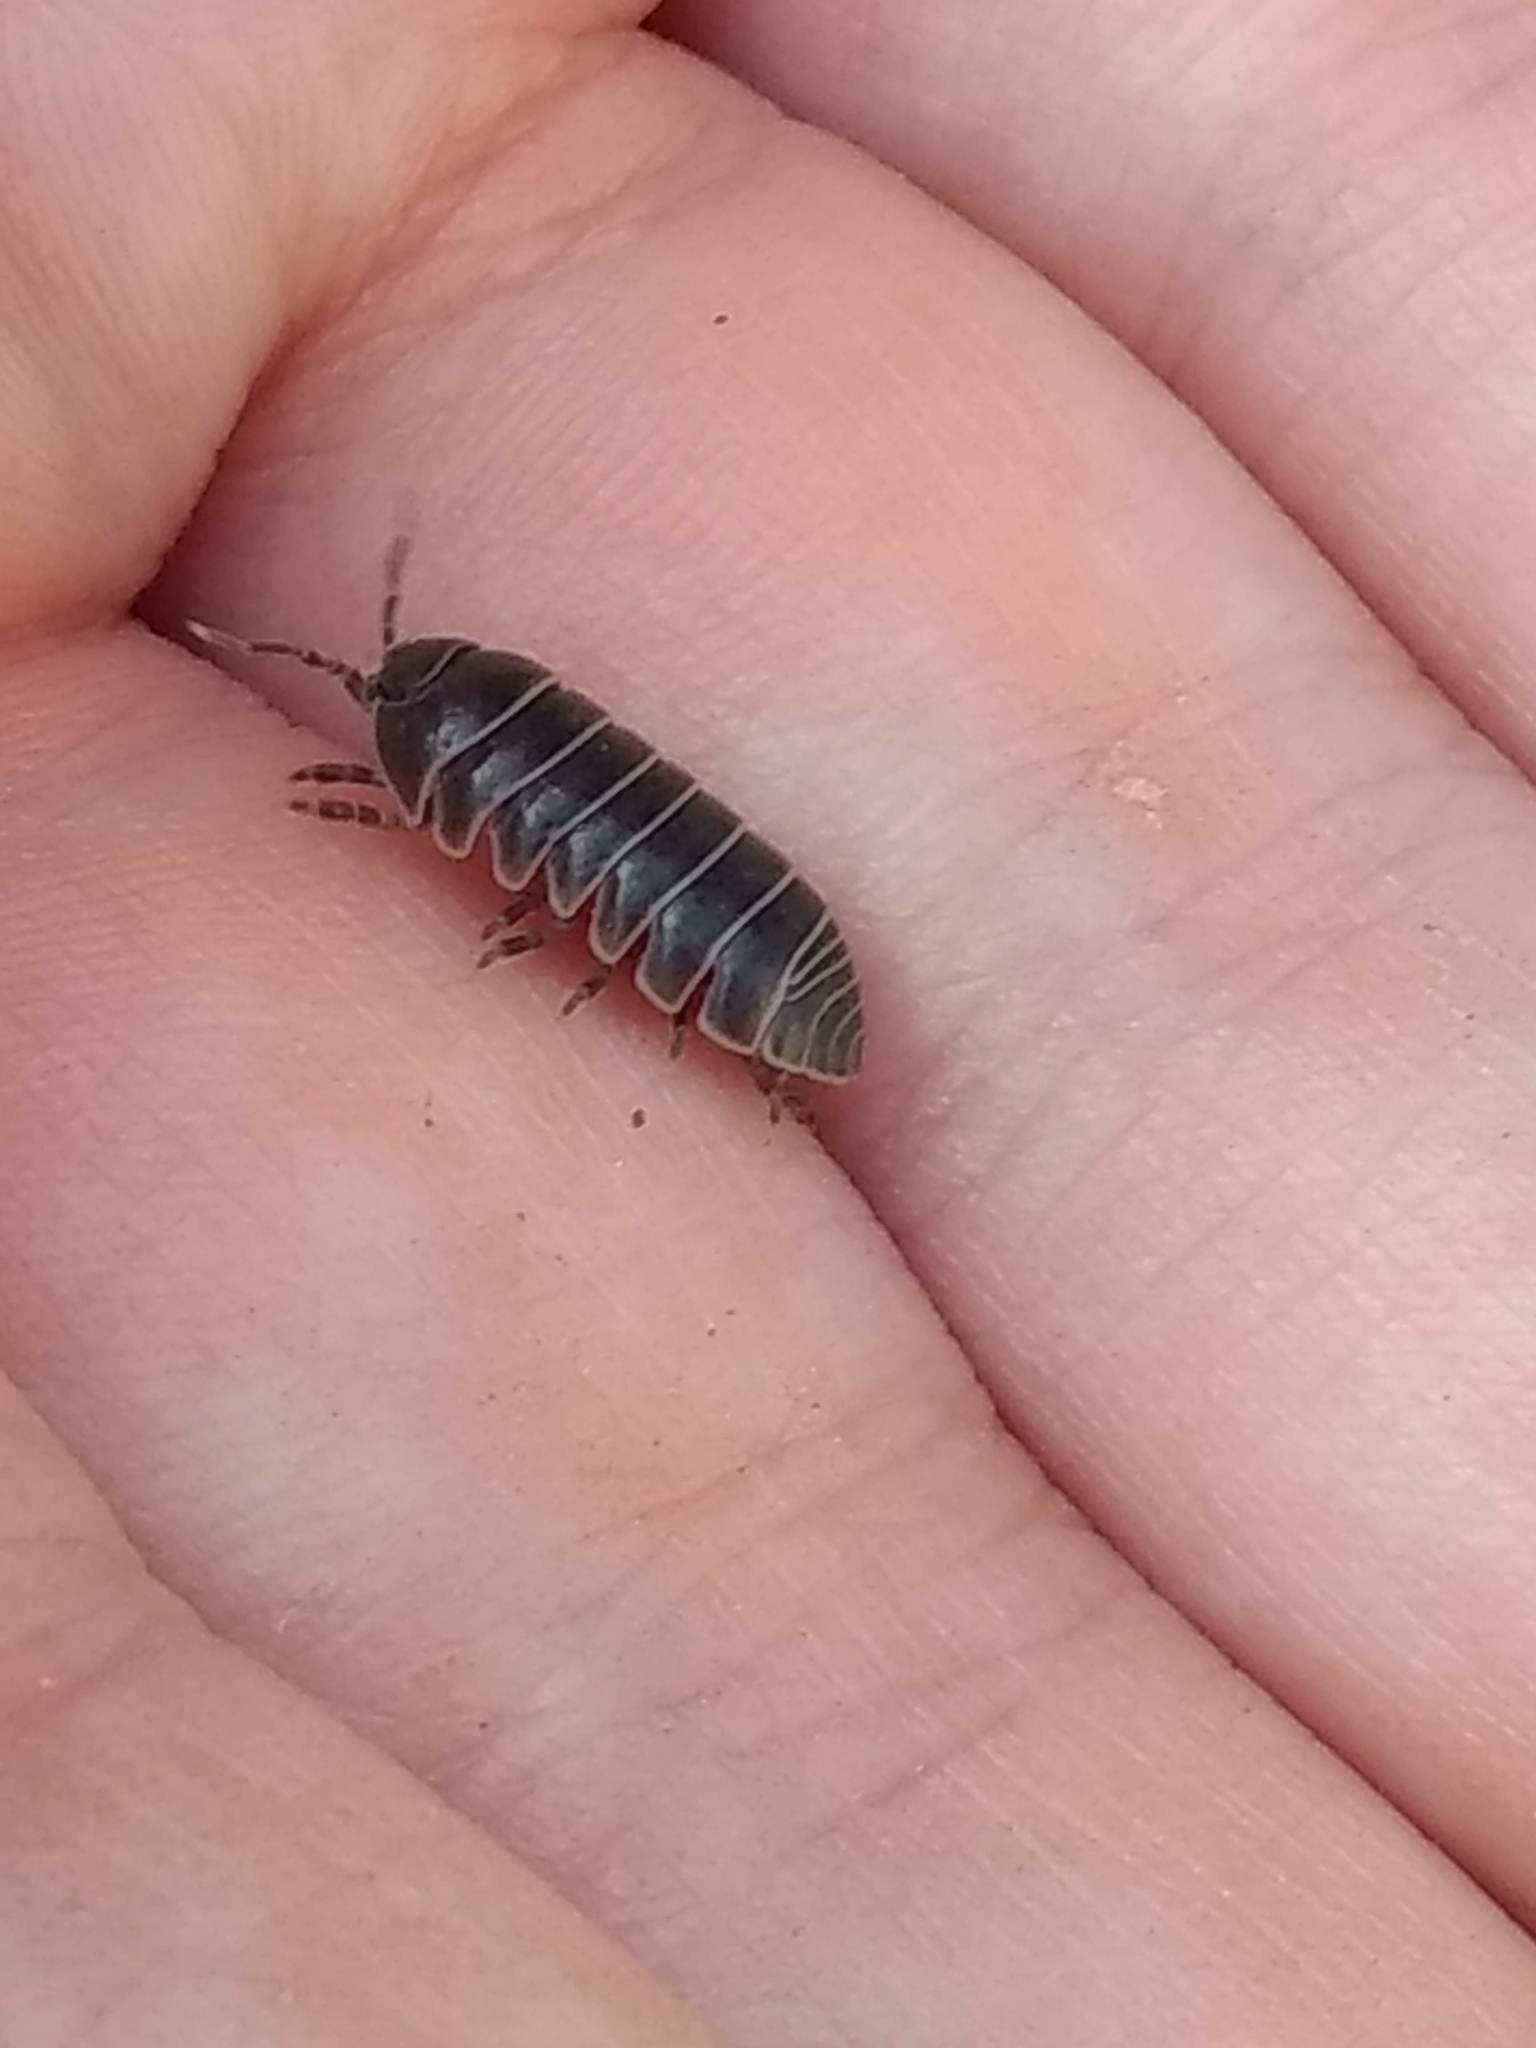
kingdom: Animalia
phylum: Arthropoda
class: Malacostraca
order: Isopoda
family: Armadillidiidae
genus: Armadillidium
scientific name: Armadillidium vulgare
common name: Common pill woodlouse
